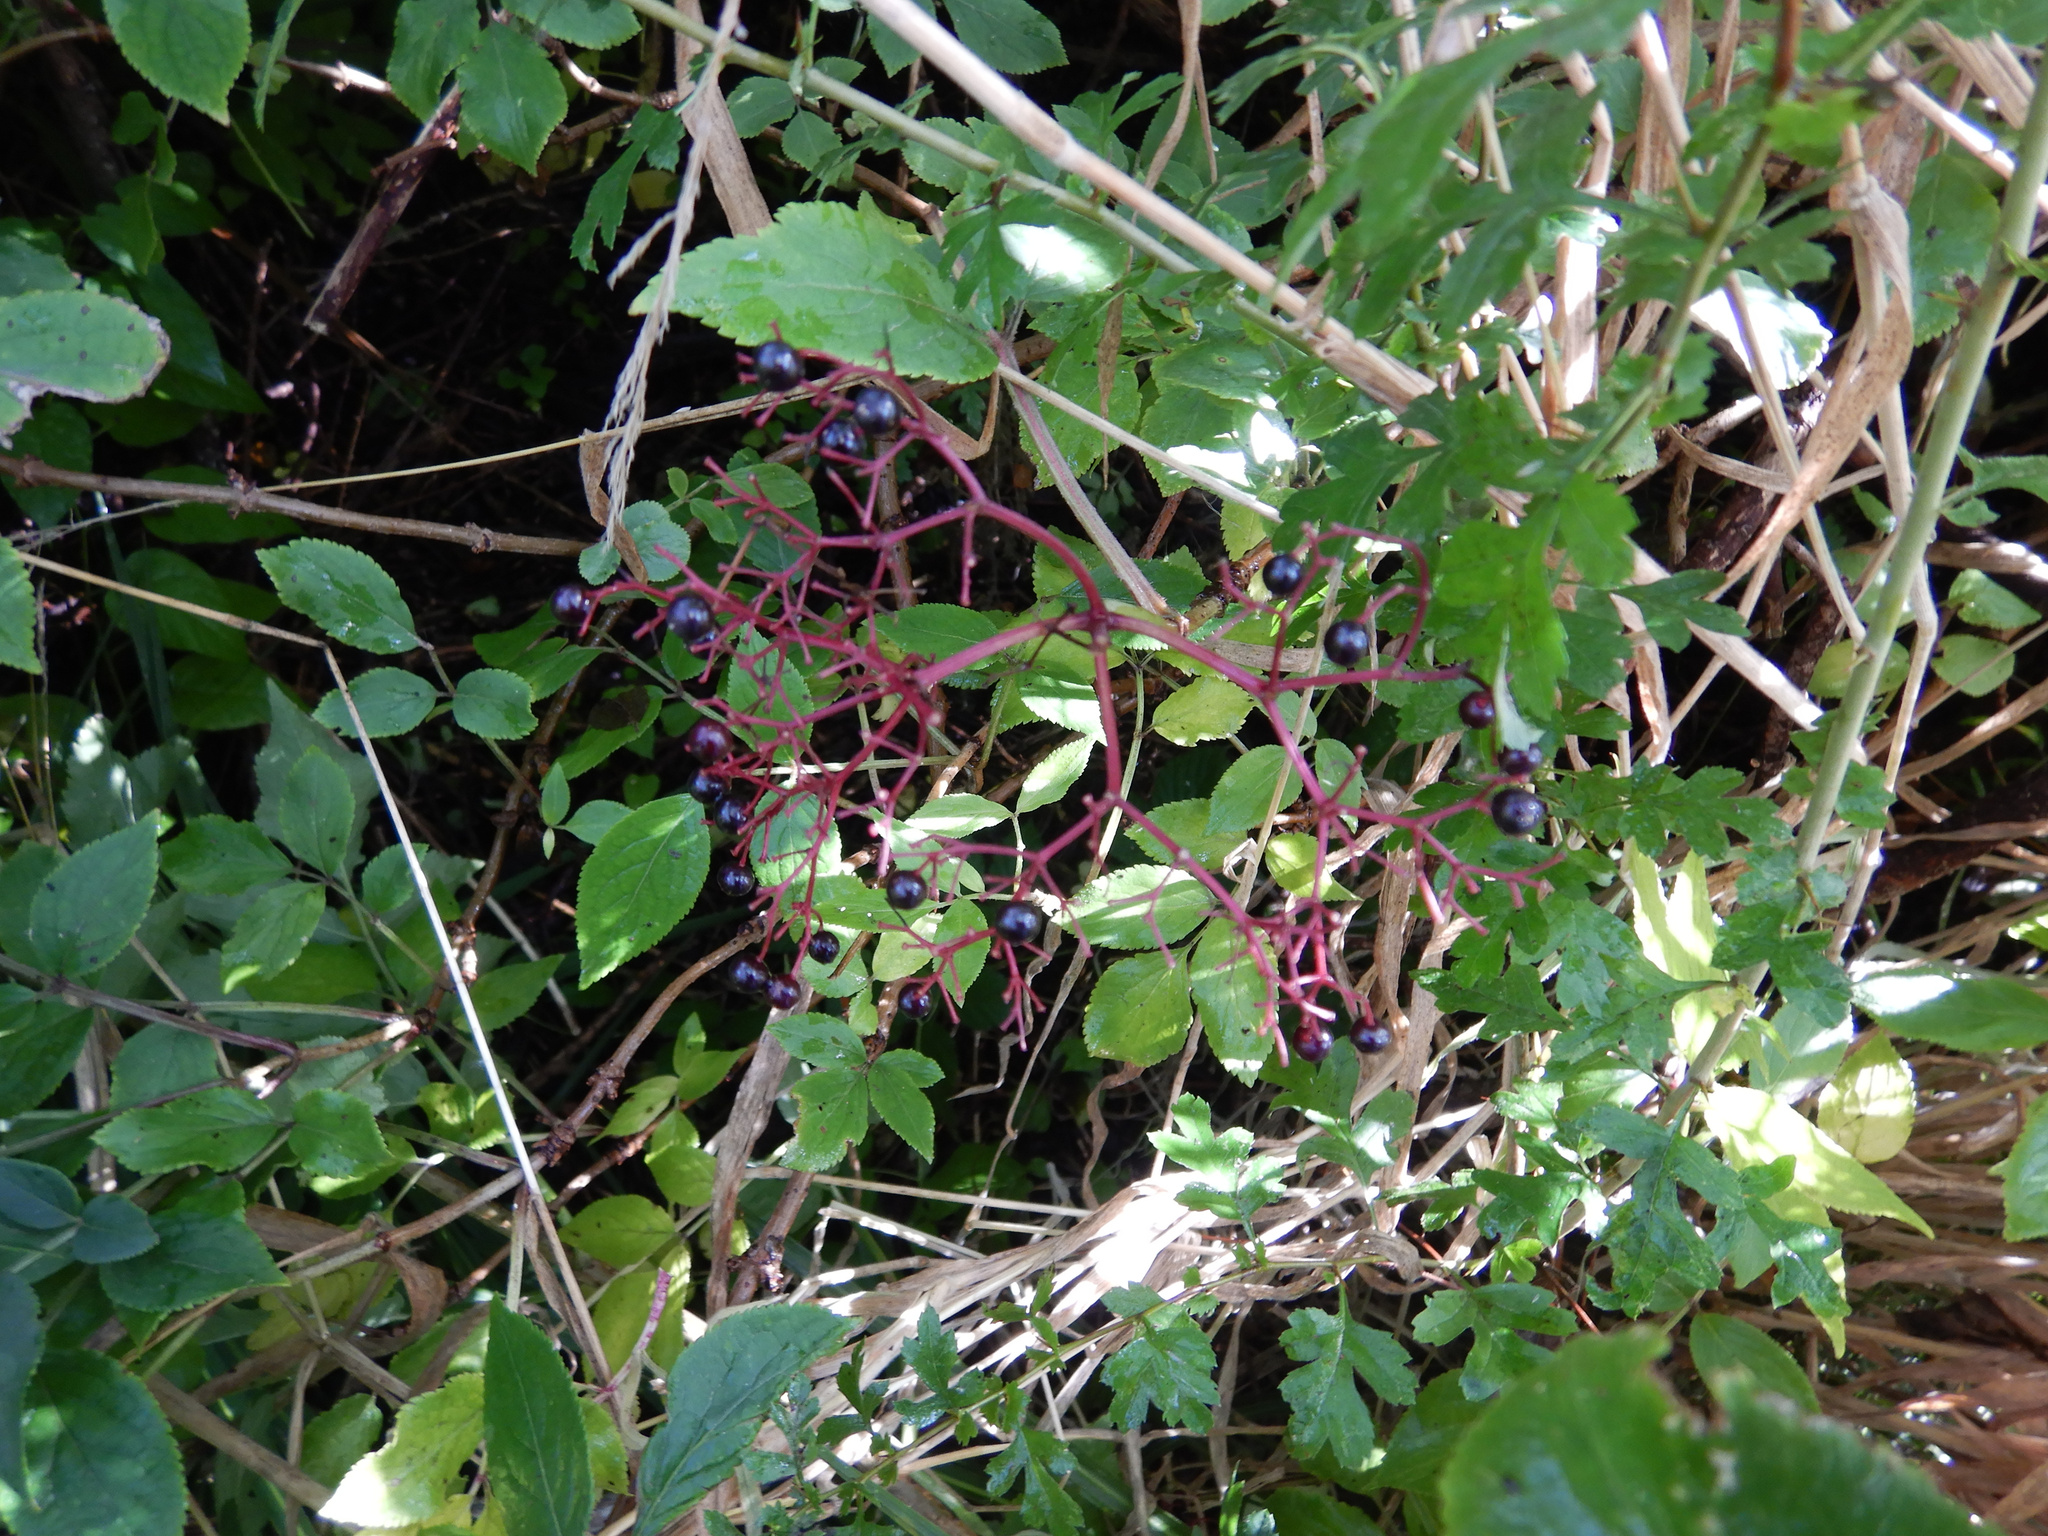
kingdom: Plantae
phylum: Tracheophyta
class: Magnoliopsida
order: Dipsacales
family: Viburnaceae
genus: Sambucus
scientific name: Sambucus nigra
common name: Elder
